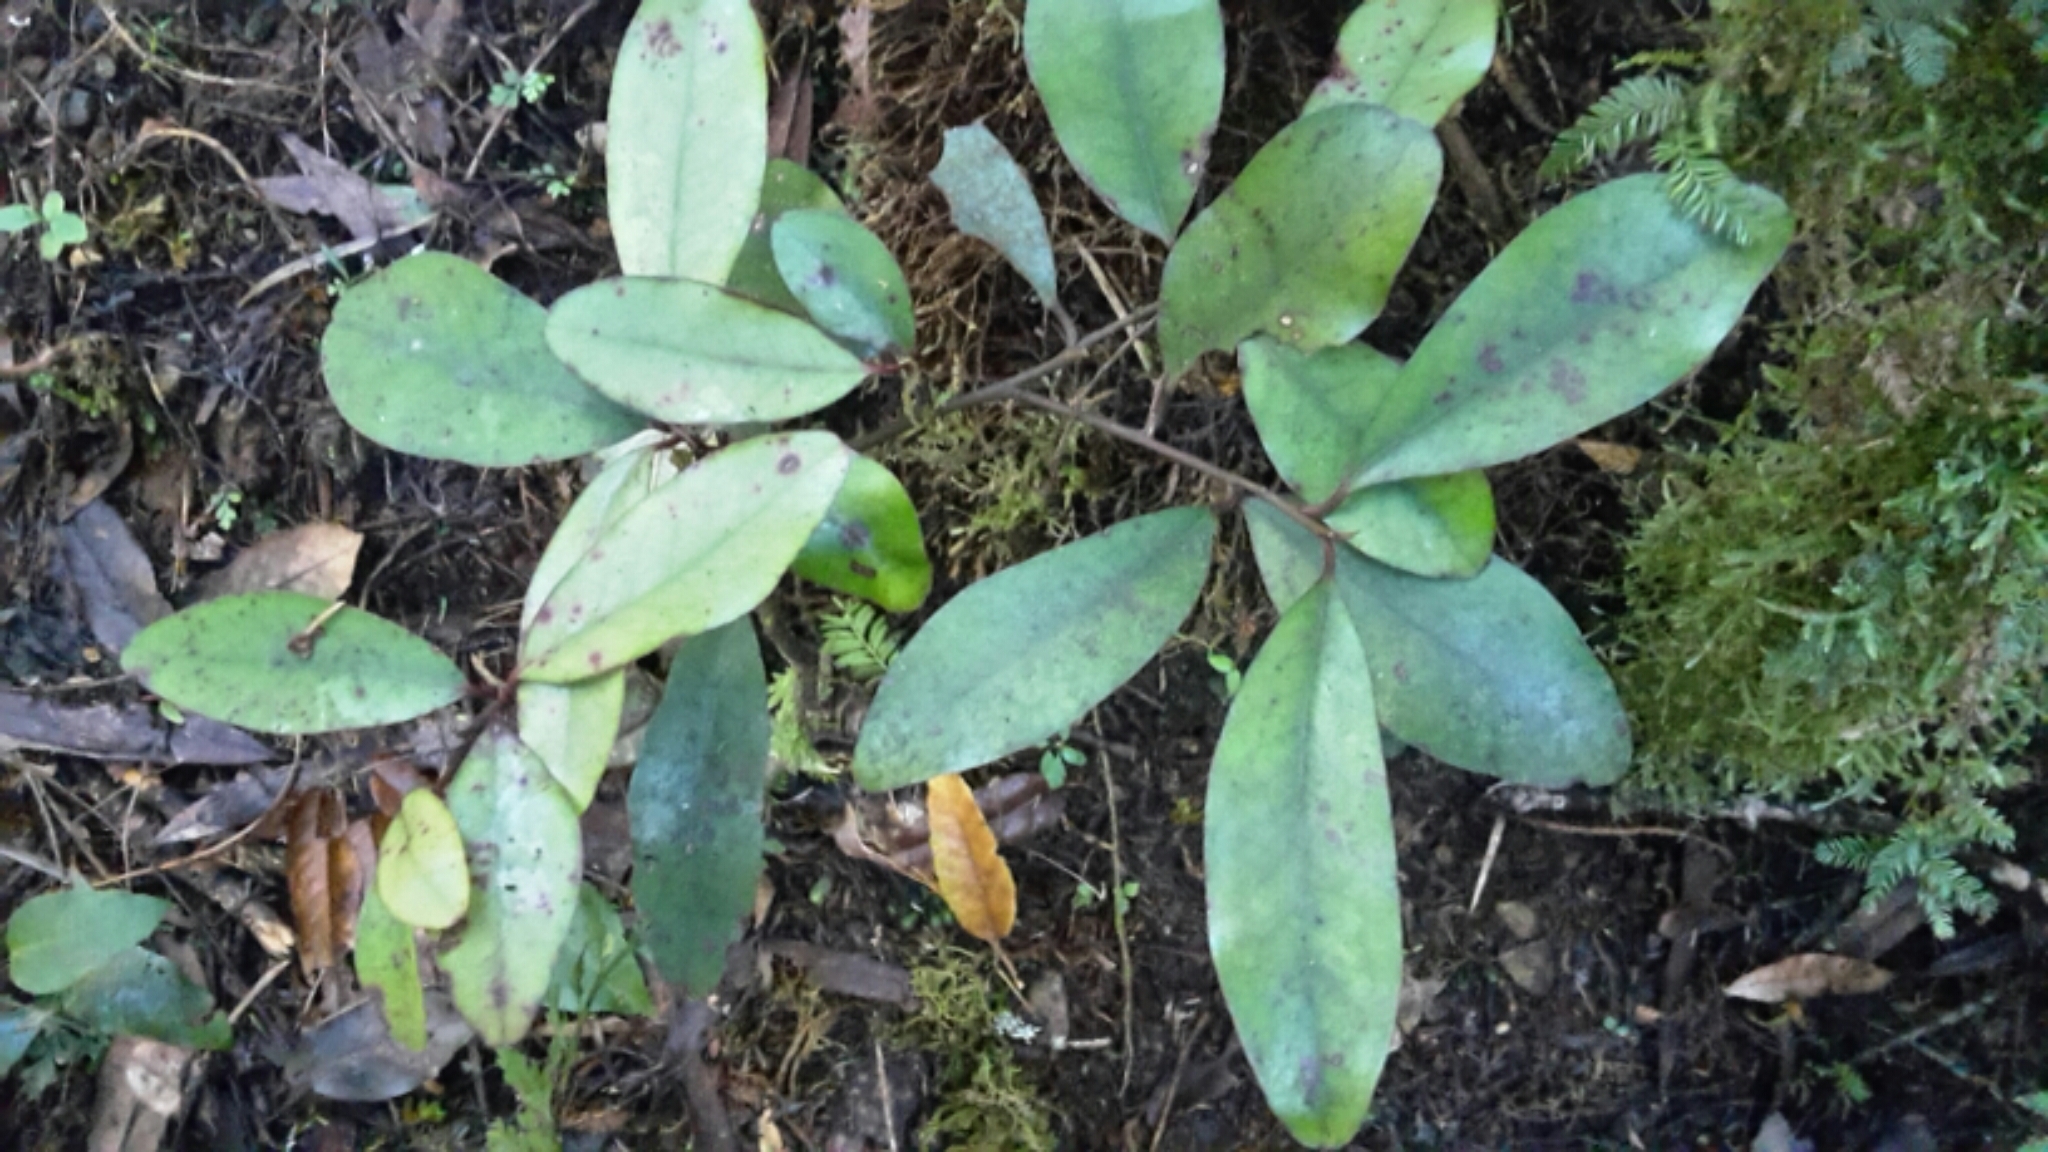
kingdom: Plantae
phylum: Tracheophyta
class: Magnoliopsida
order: Canellales
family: Winteraceae
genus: Pseudowintera
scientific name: Pseudowintera colorata
